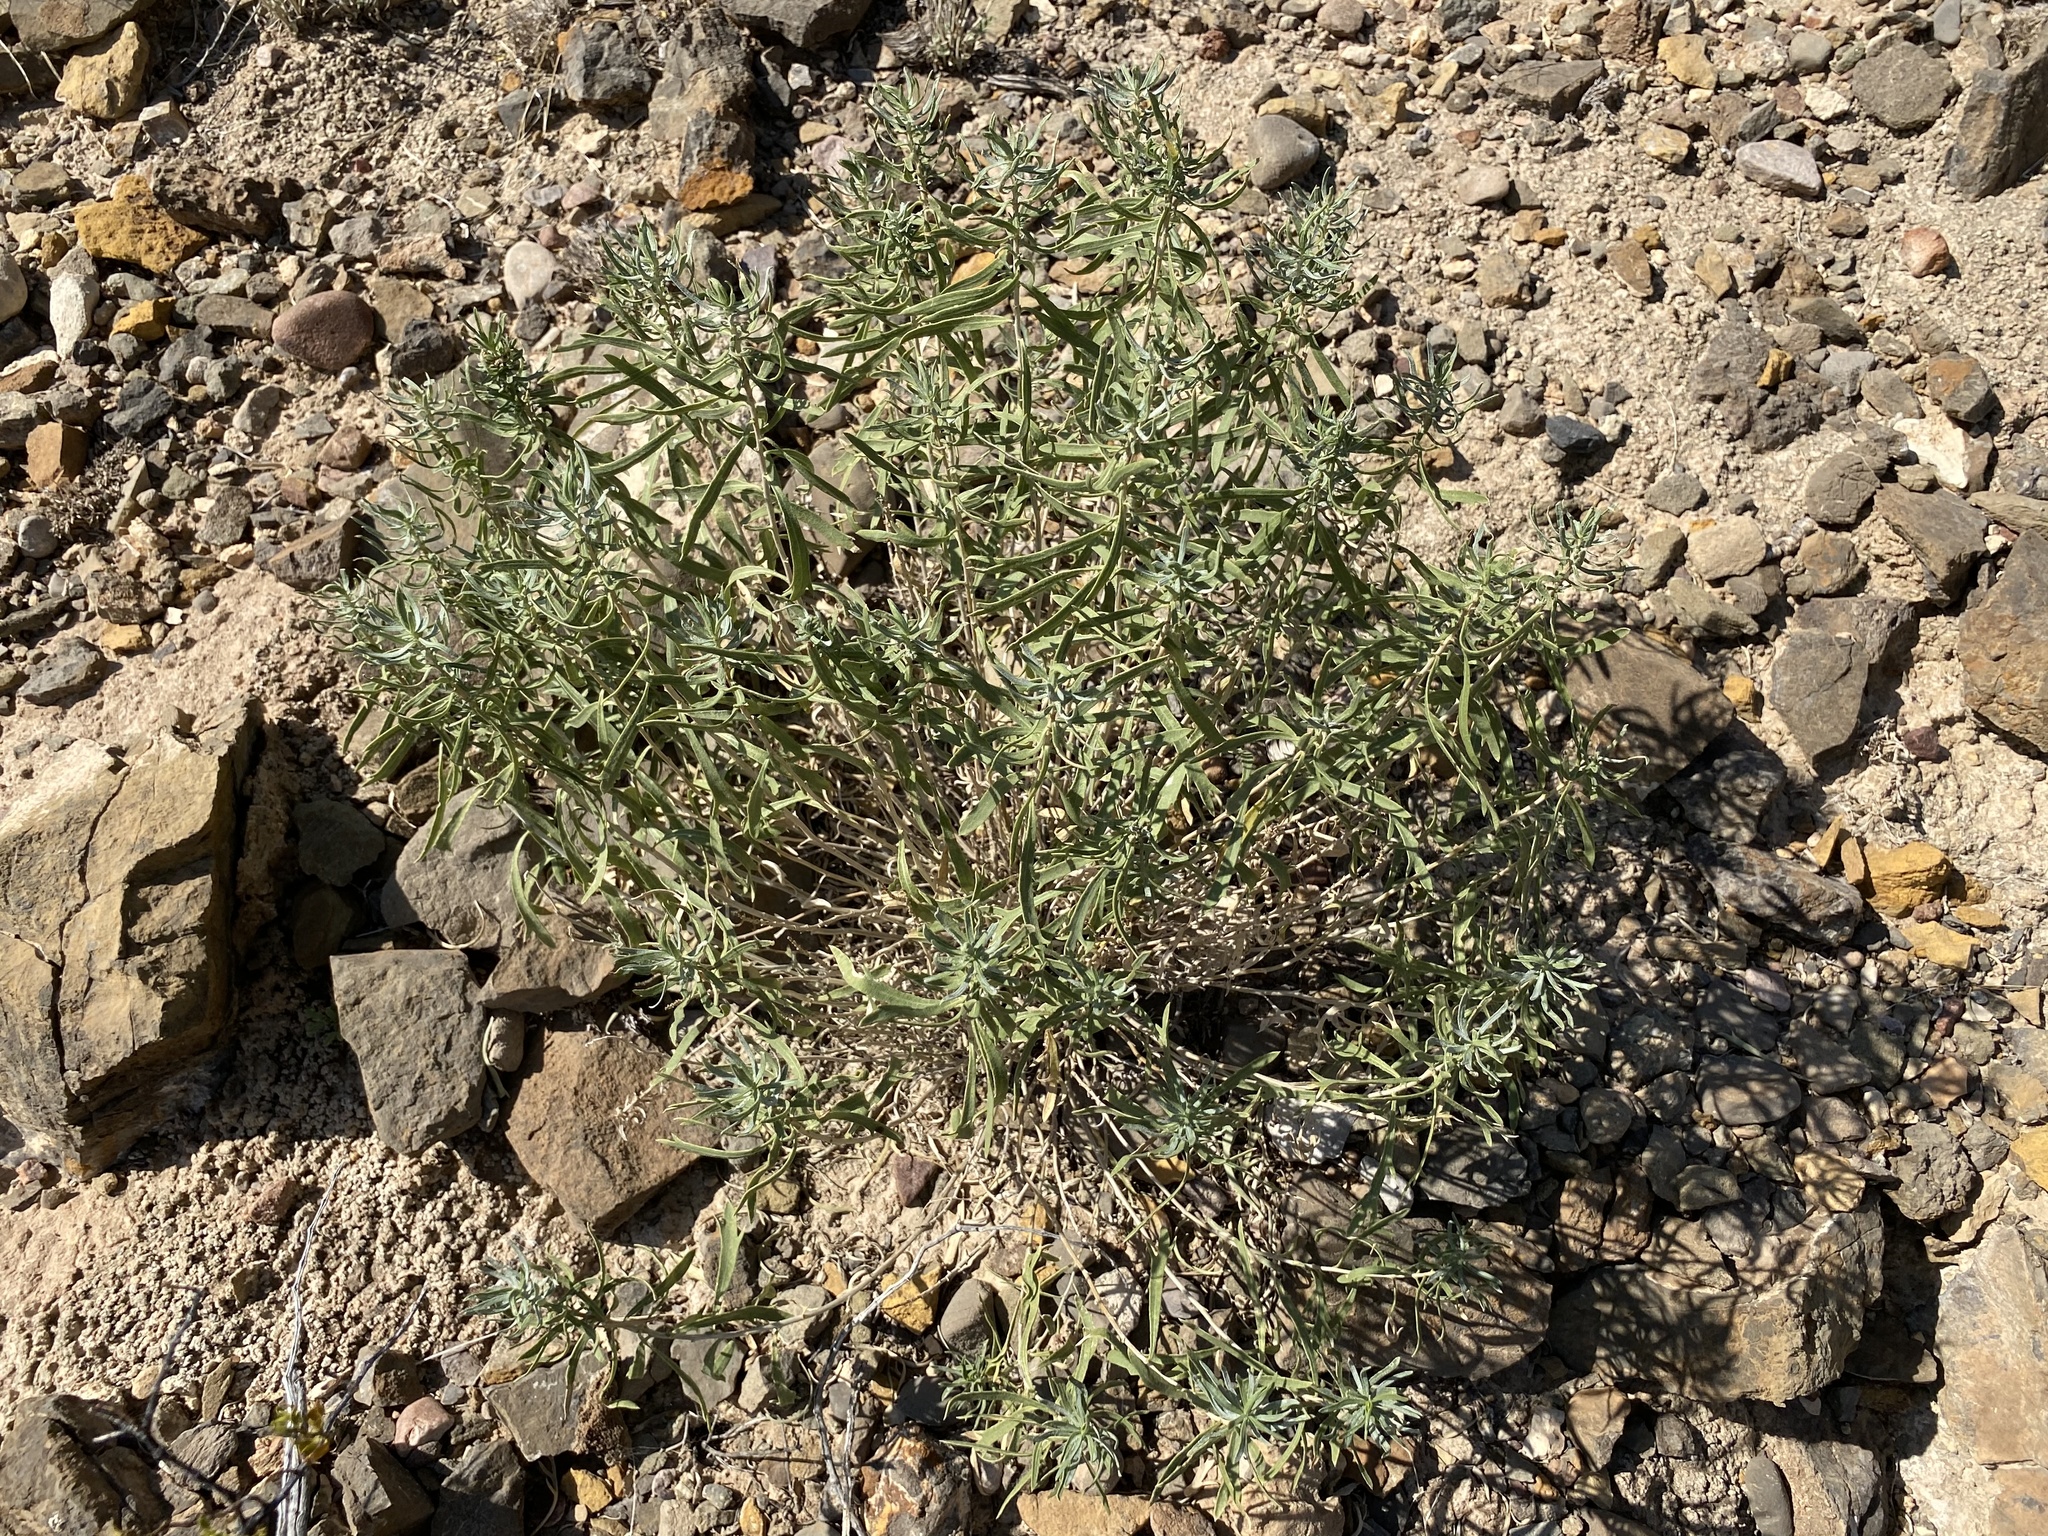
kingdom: Plantae
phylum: Tracheophyta
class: Magnoliopsida
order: Asterales
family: Asteraceae
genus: Isocoma
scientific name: Isocoma pluriflora
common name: Southern jimmyweed
